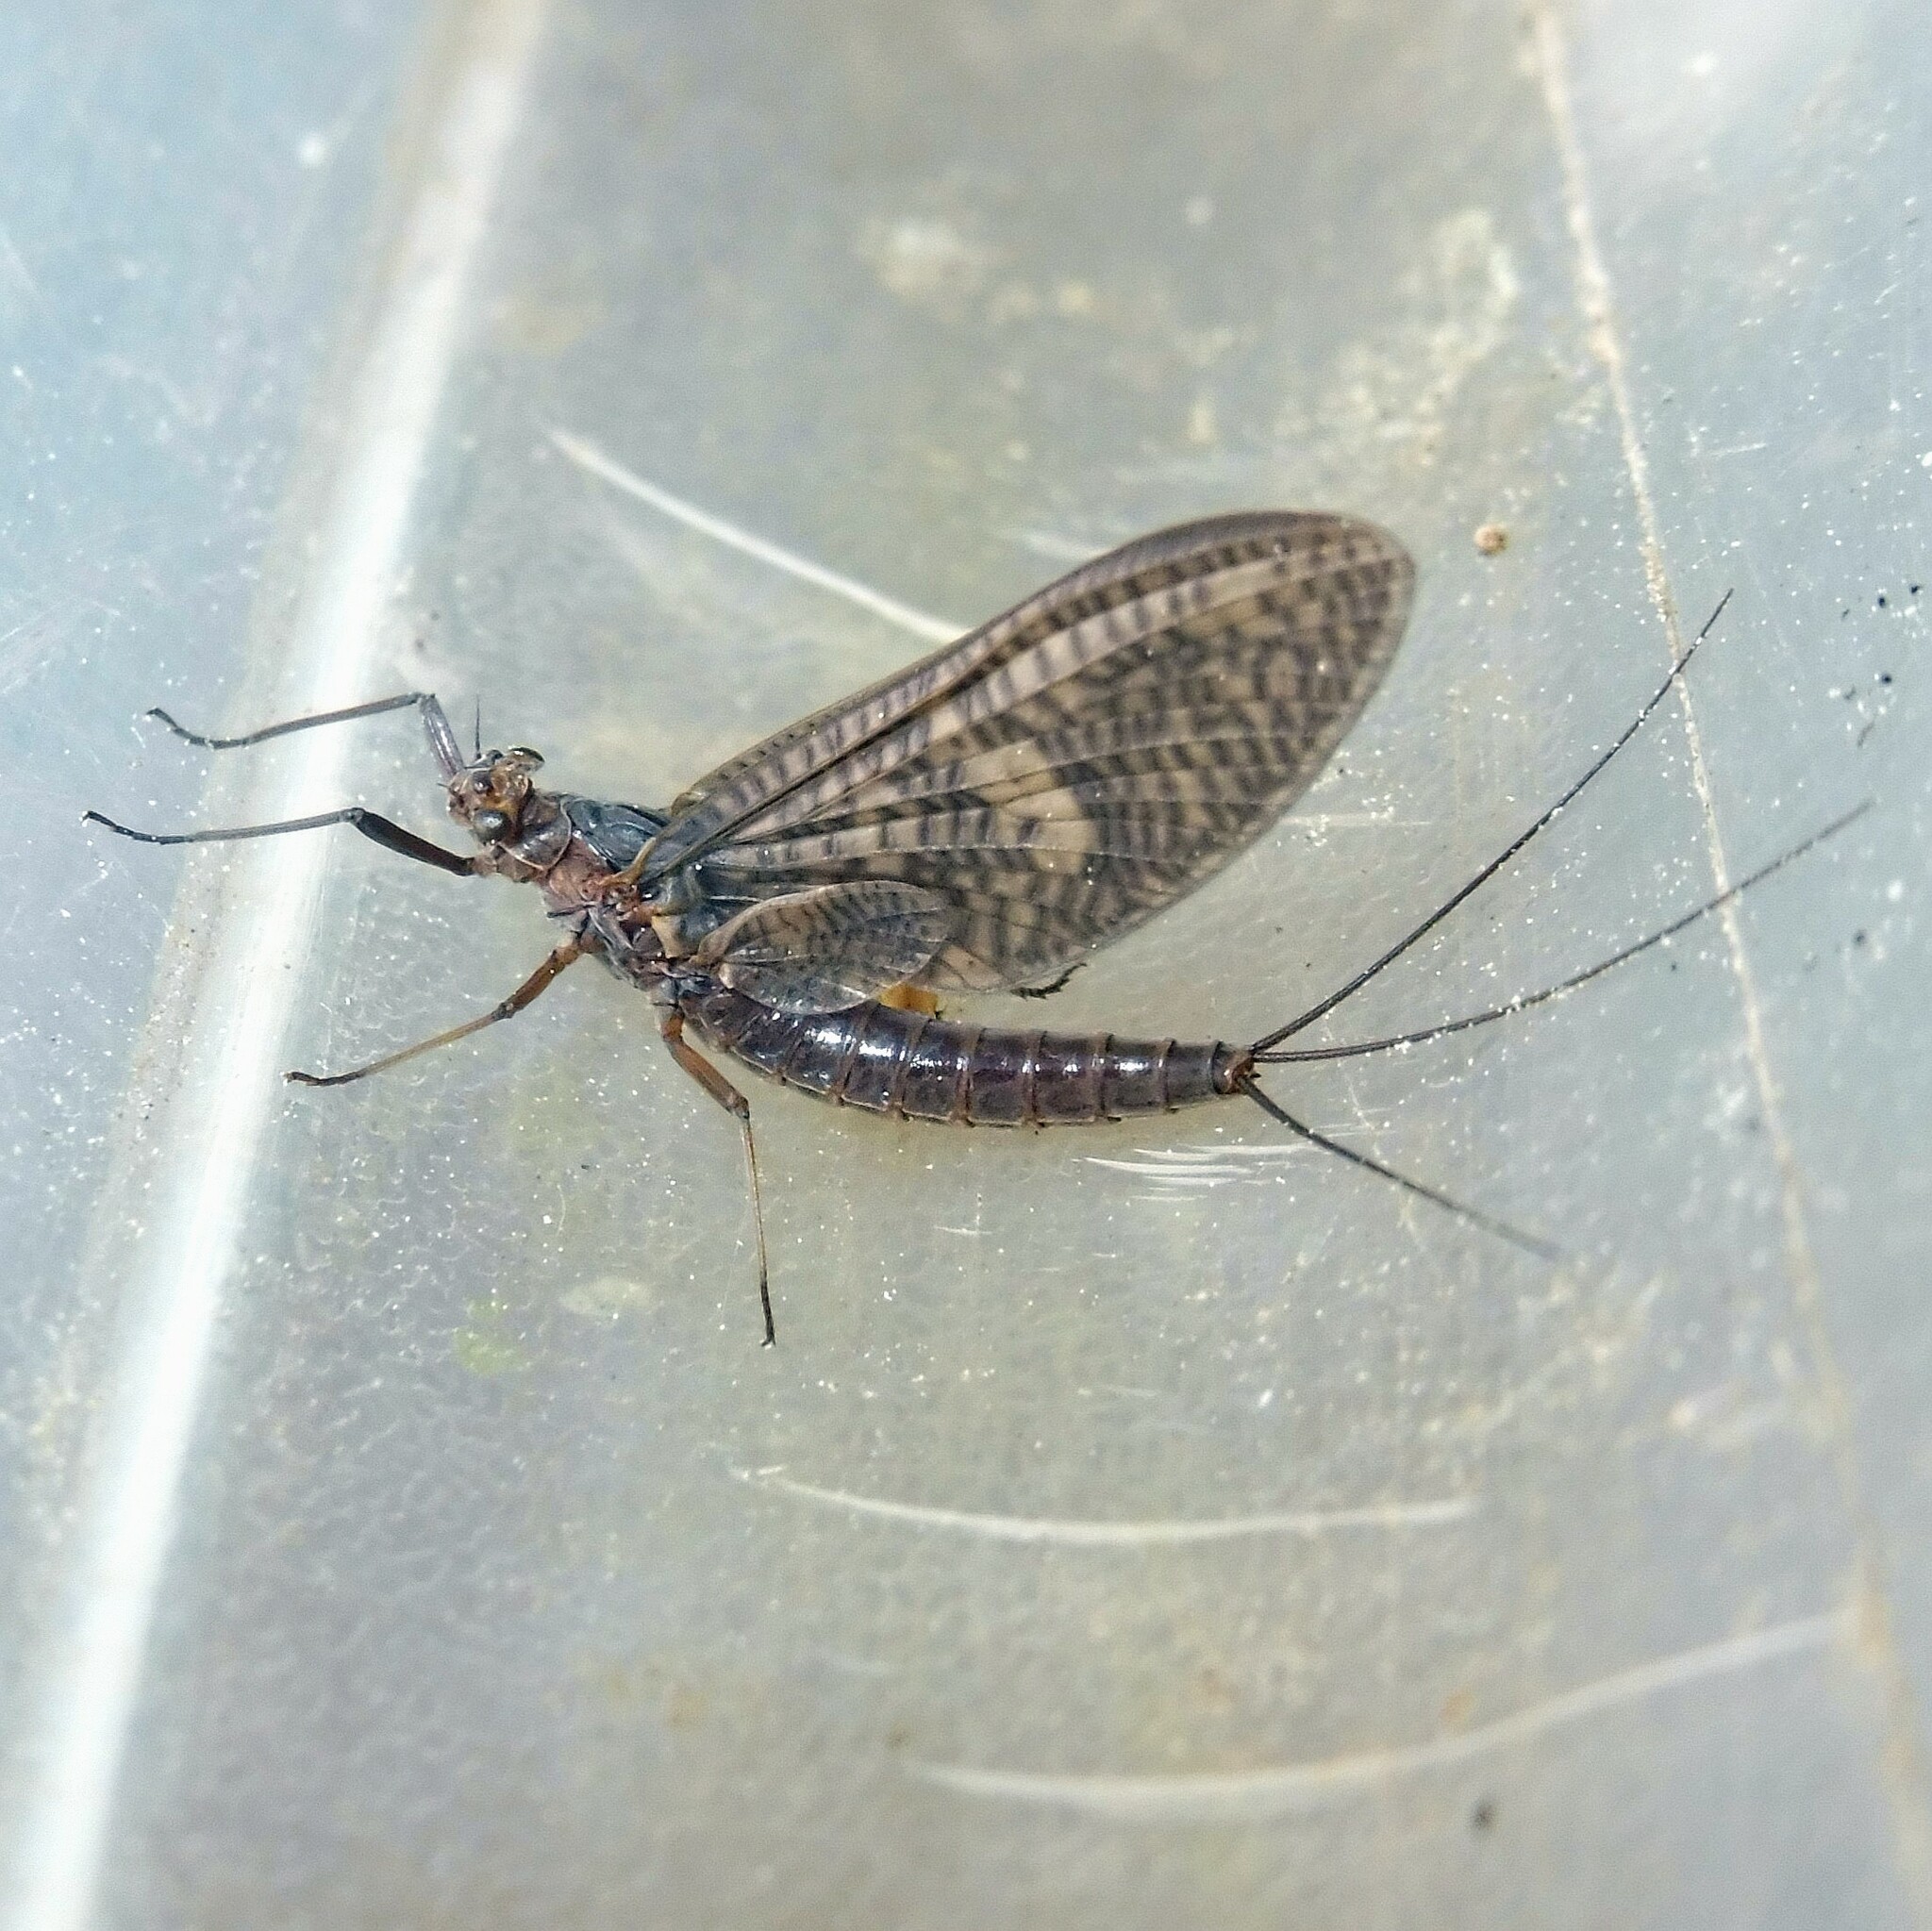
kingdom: Animalia
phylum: Arthropoda
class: Insecta
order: Ephemeroptera
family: Leptophlebiidae
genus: Paraleptophlebia
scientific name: Paraleptophlebia submarginata
